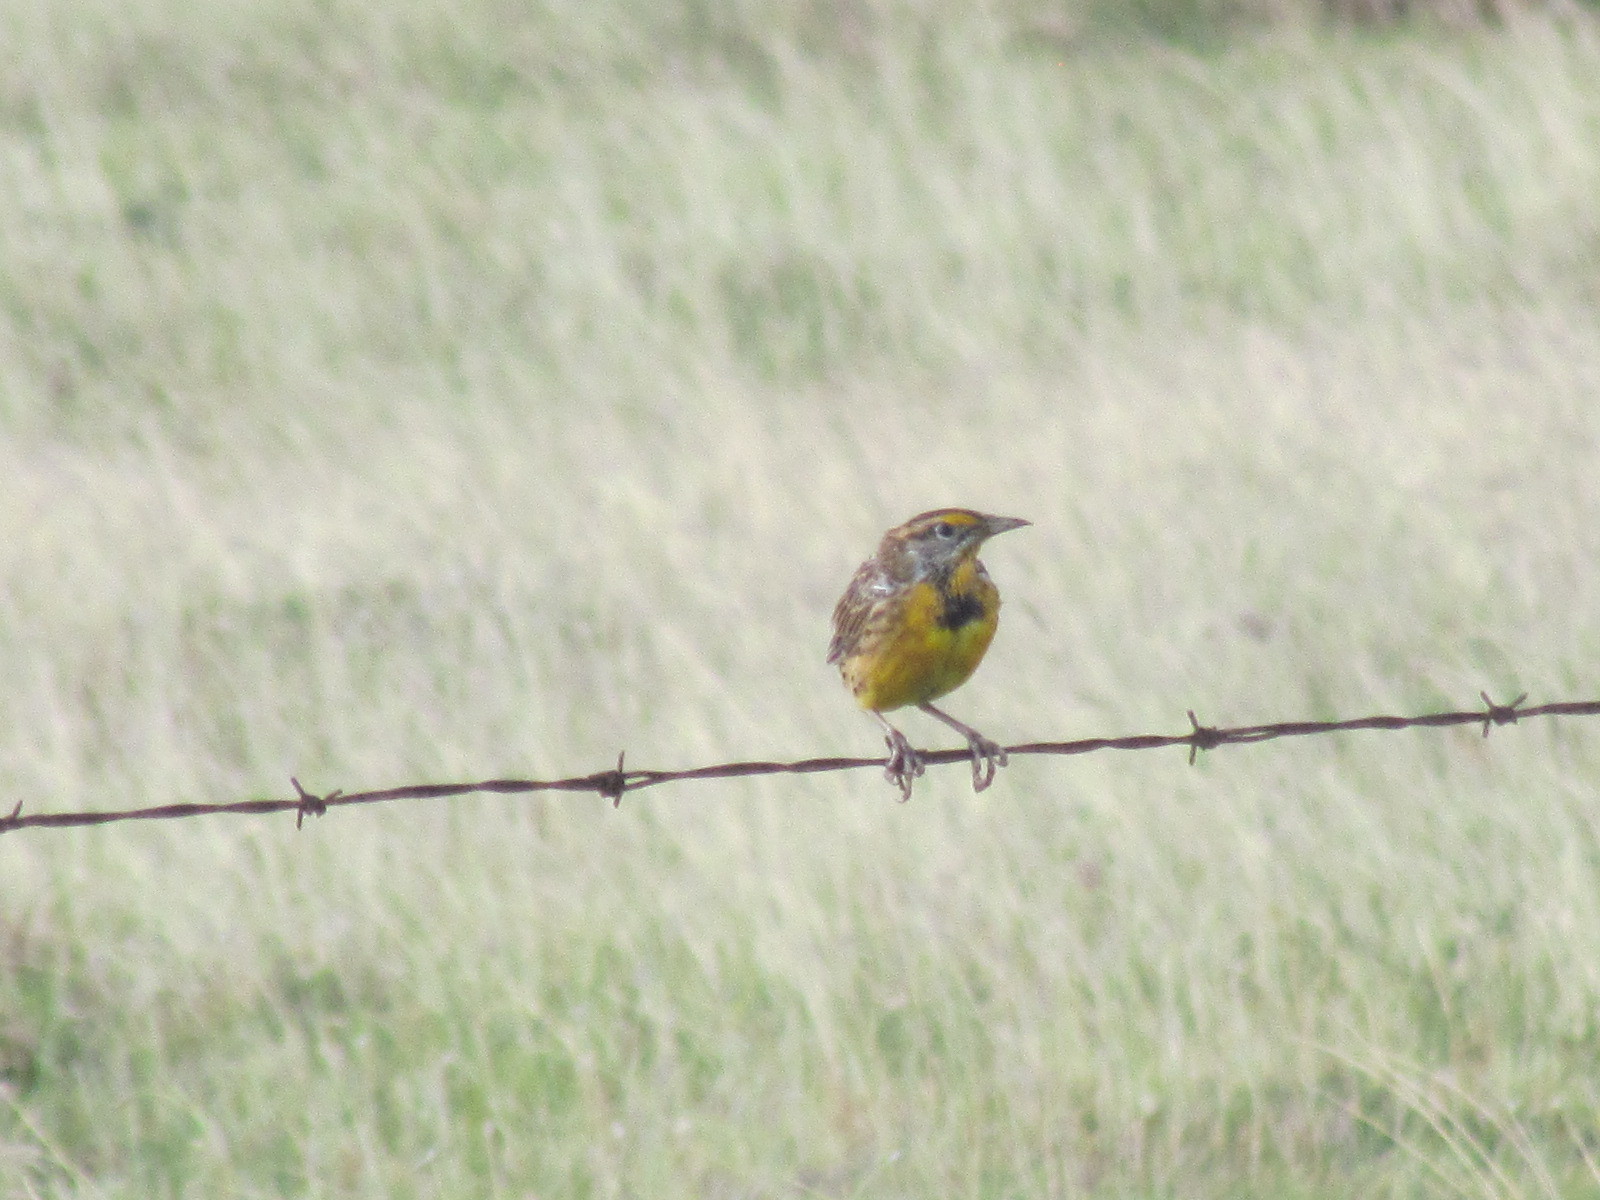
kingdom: Animalia
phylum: Chordata
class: Aves
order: Passeriformes
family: Icteridae
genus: Sturnella
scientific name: Sturnella magna
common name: Eastern meadowlark
